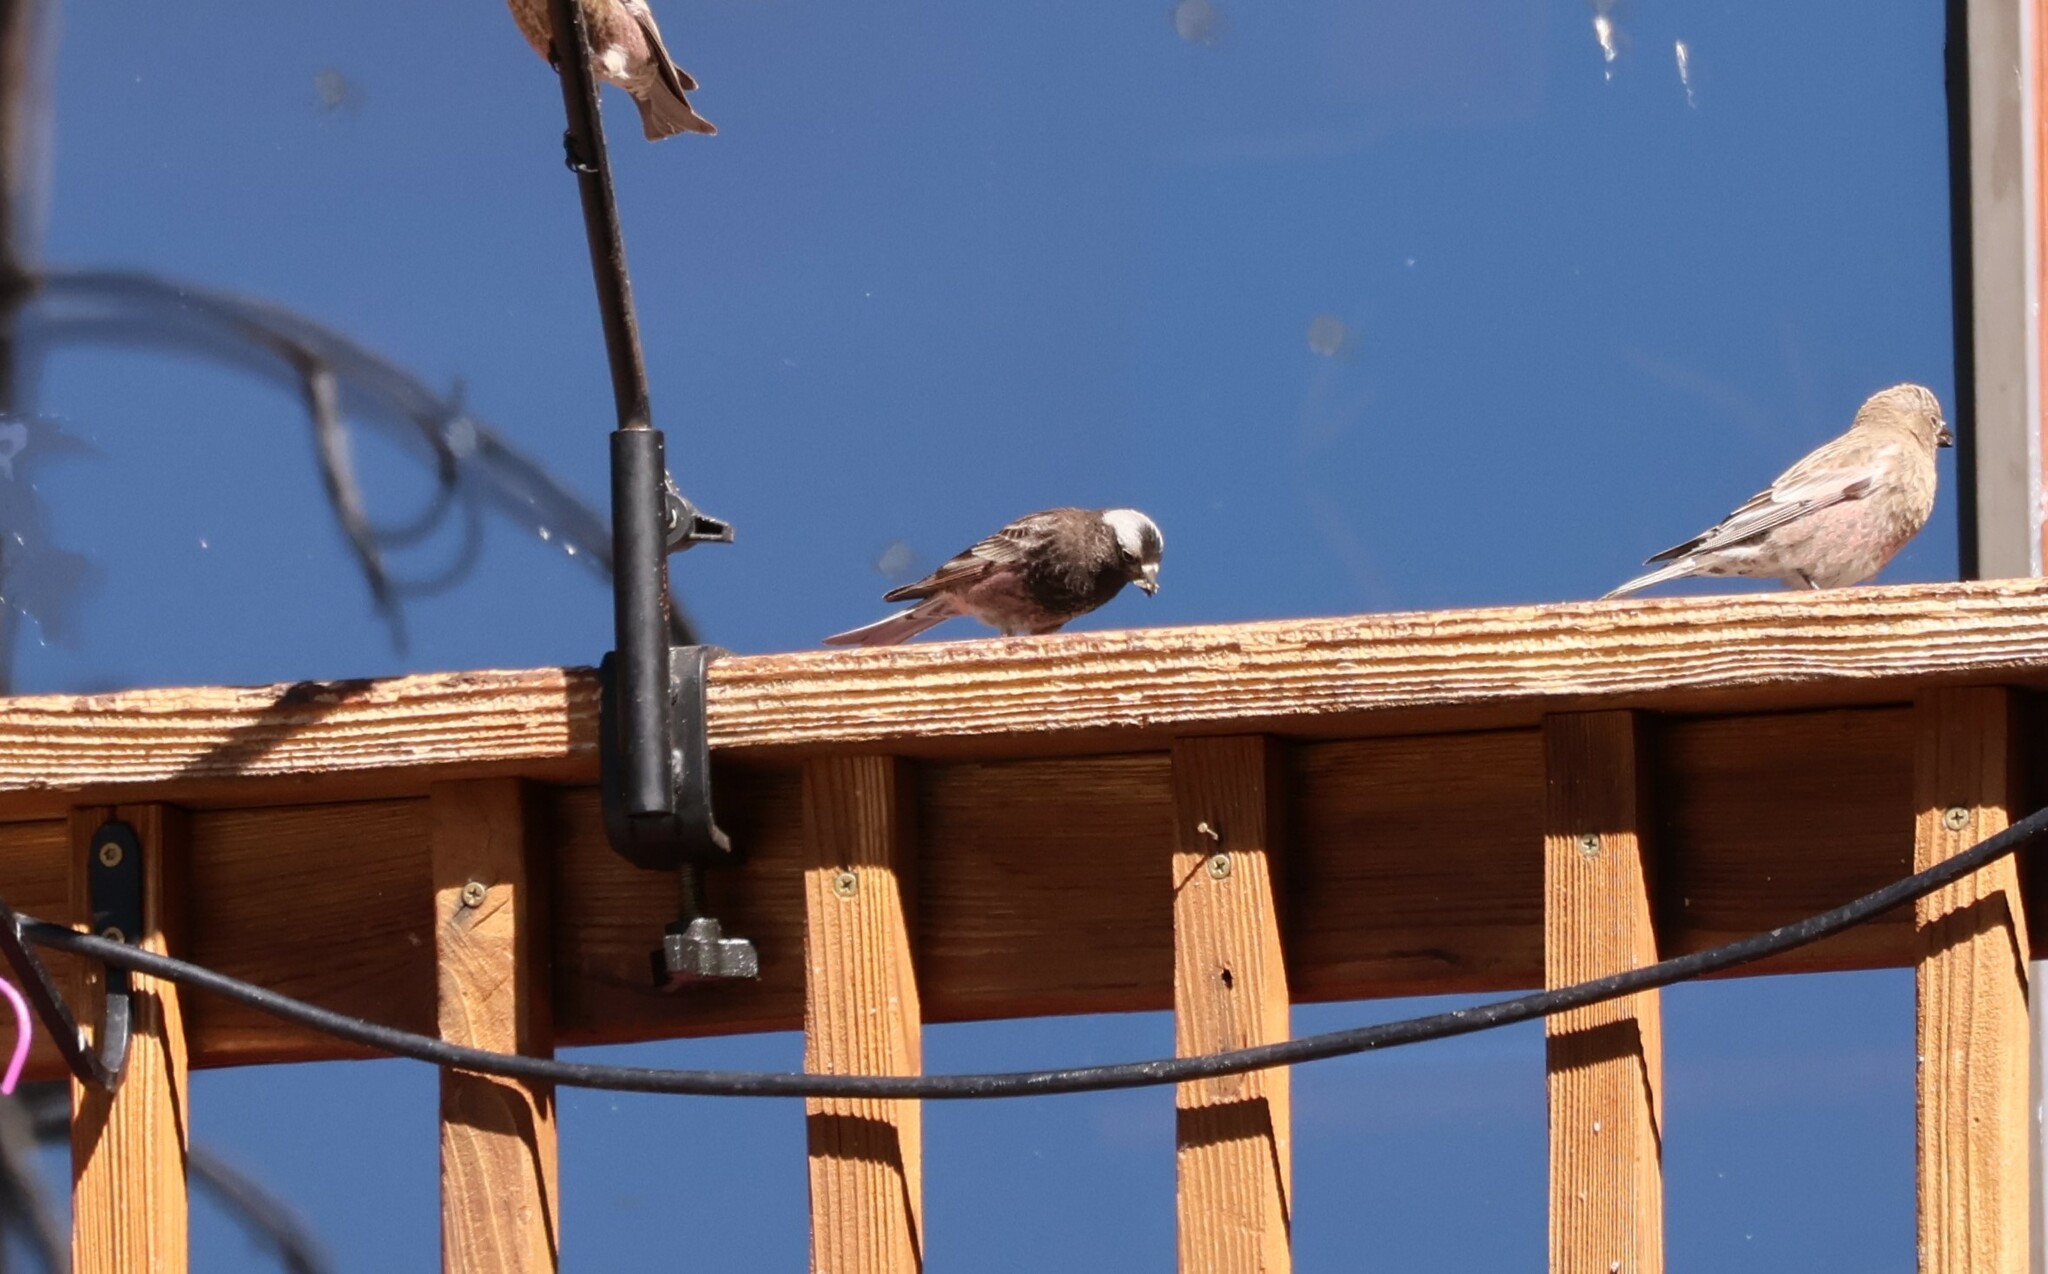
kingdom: Animalia
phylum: Chordata
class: Aves
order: Passeriformes
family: Fringillidae
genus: Leucosticte
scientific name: Leucosticte atrata
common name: Black rosy-finch
